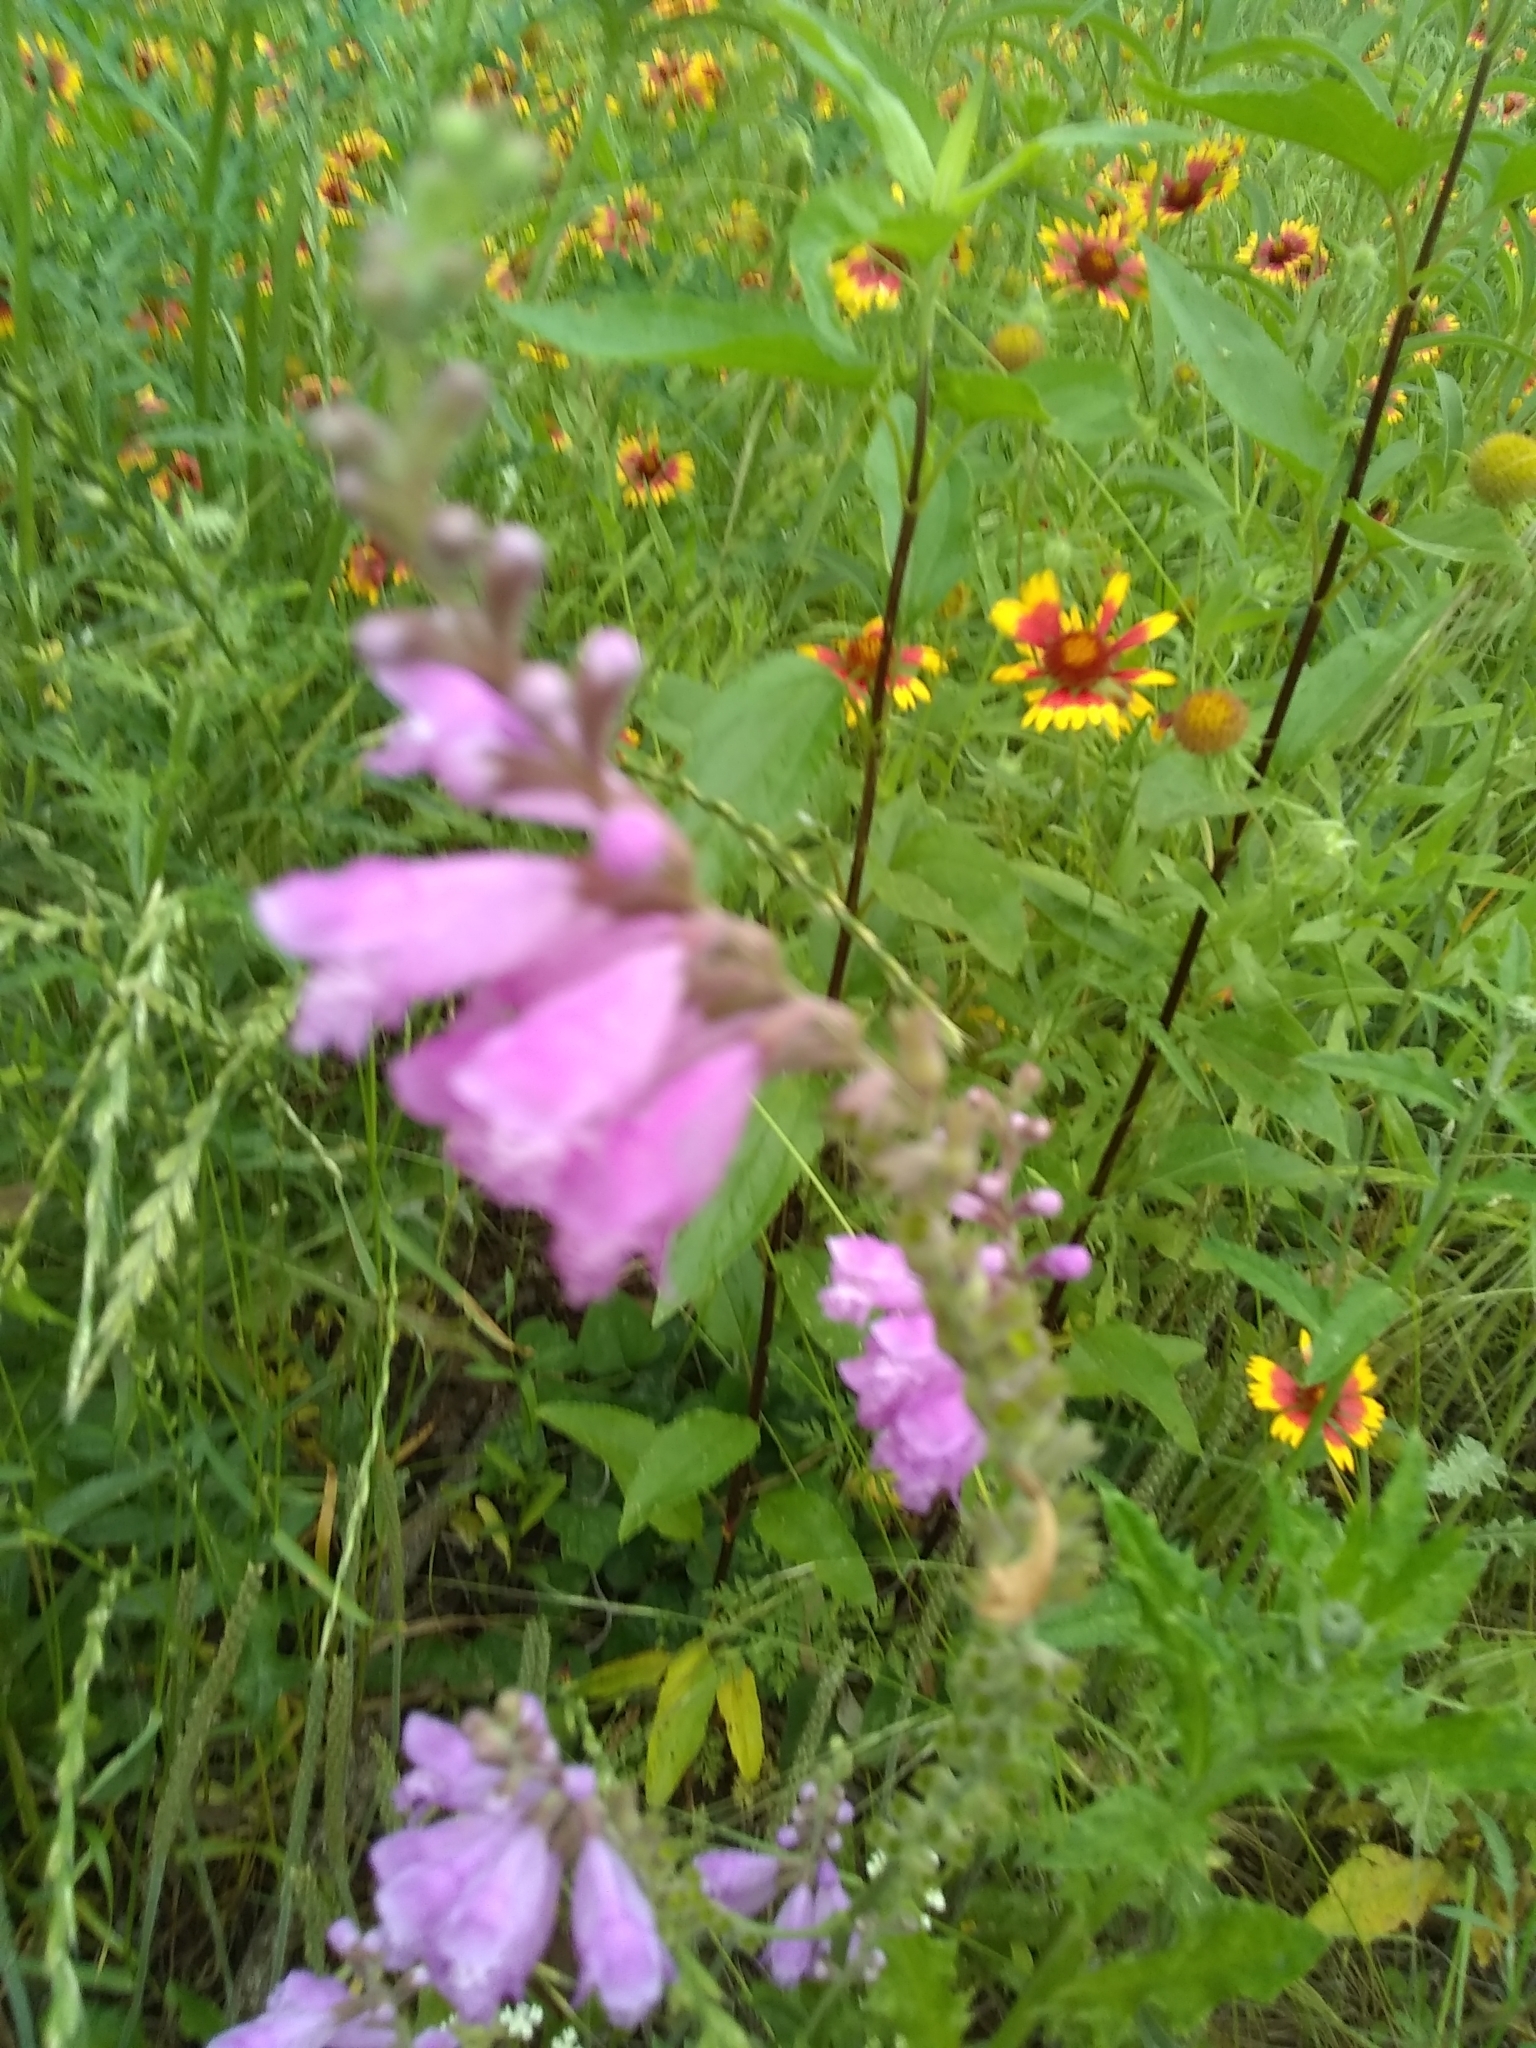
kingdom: Plantae
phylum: Tracheophyta
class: Magnoliopsida
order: Lamiales
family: Lamiaceae
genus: Physostegia
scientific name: Physostegia virginiana
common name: Obedient-plant
